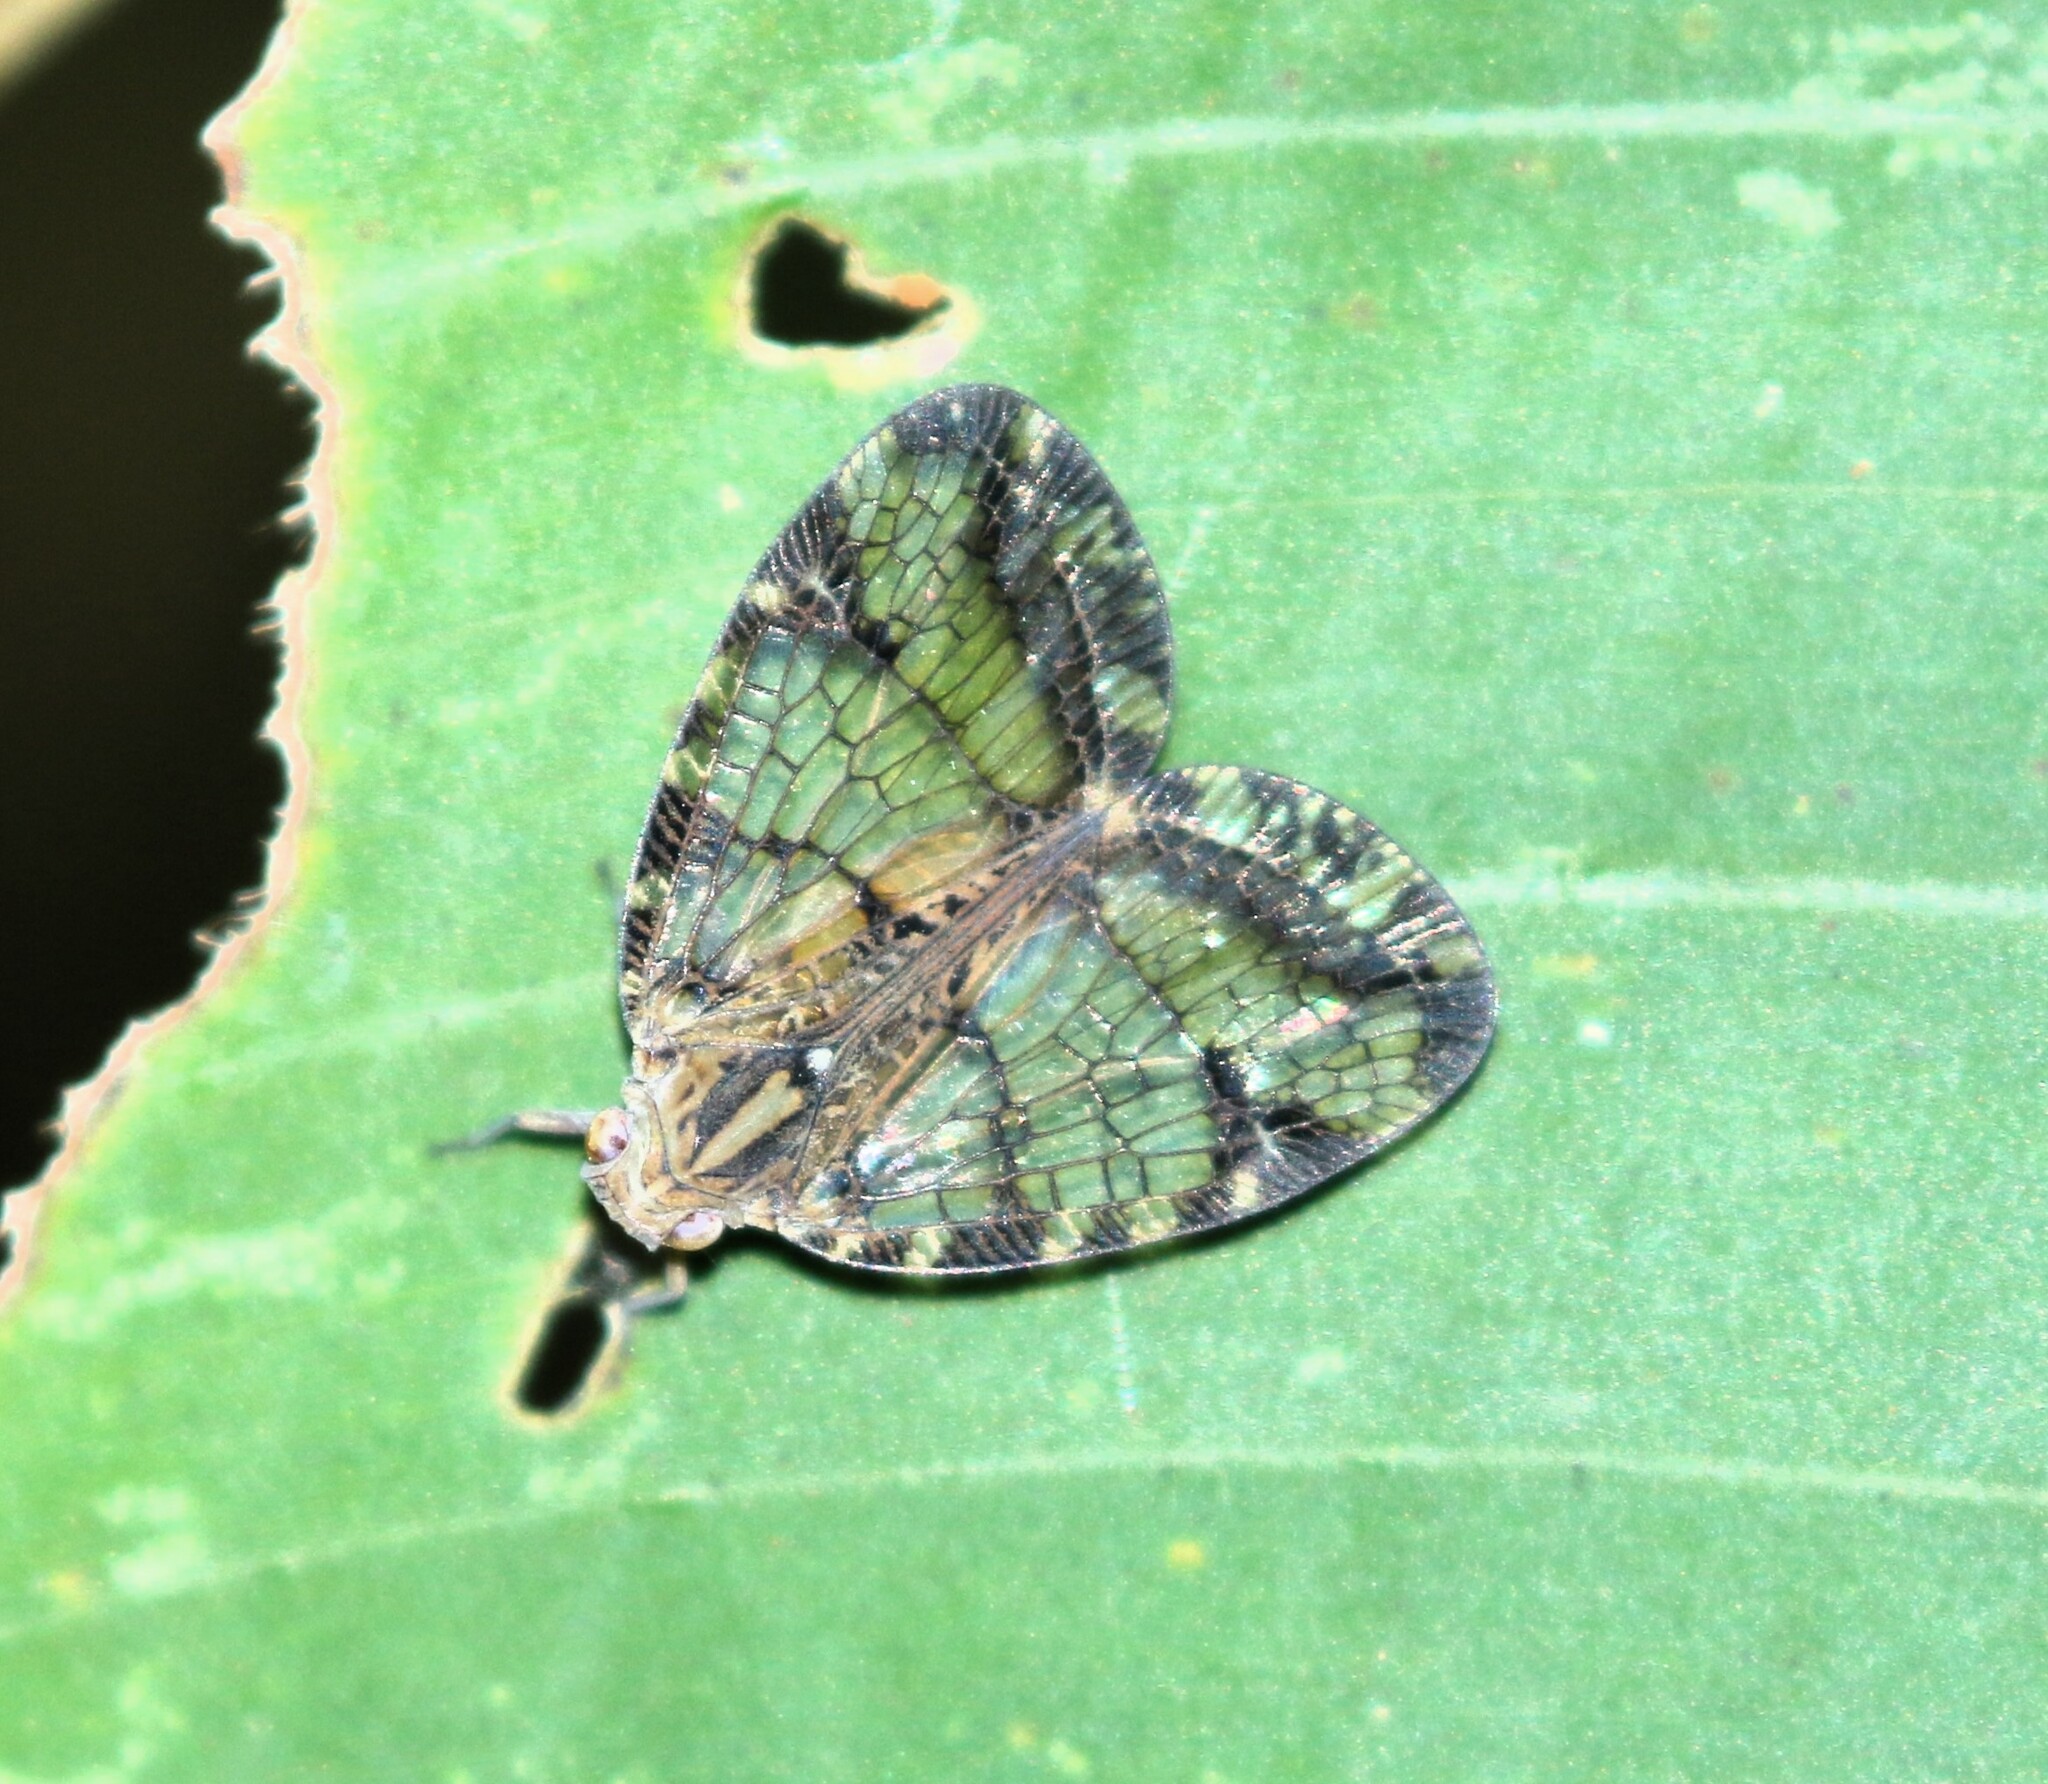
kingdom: Animalia
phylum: Arthropoda
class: Insecta
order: Hemiptera
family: Nogodinidae
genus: Biolleyana
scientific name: Biolleyana pictifrons
